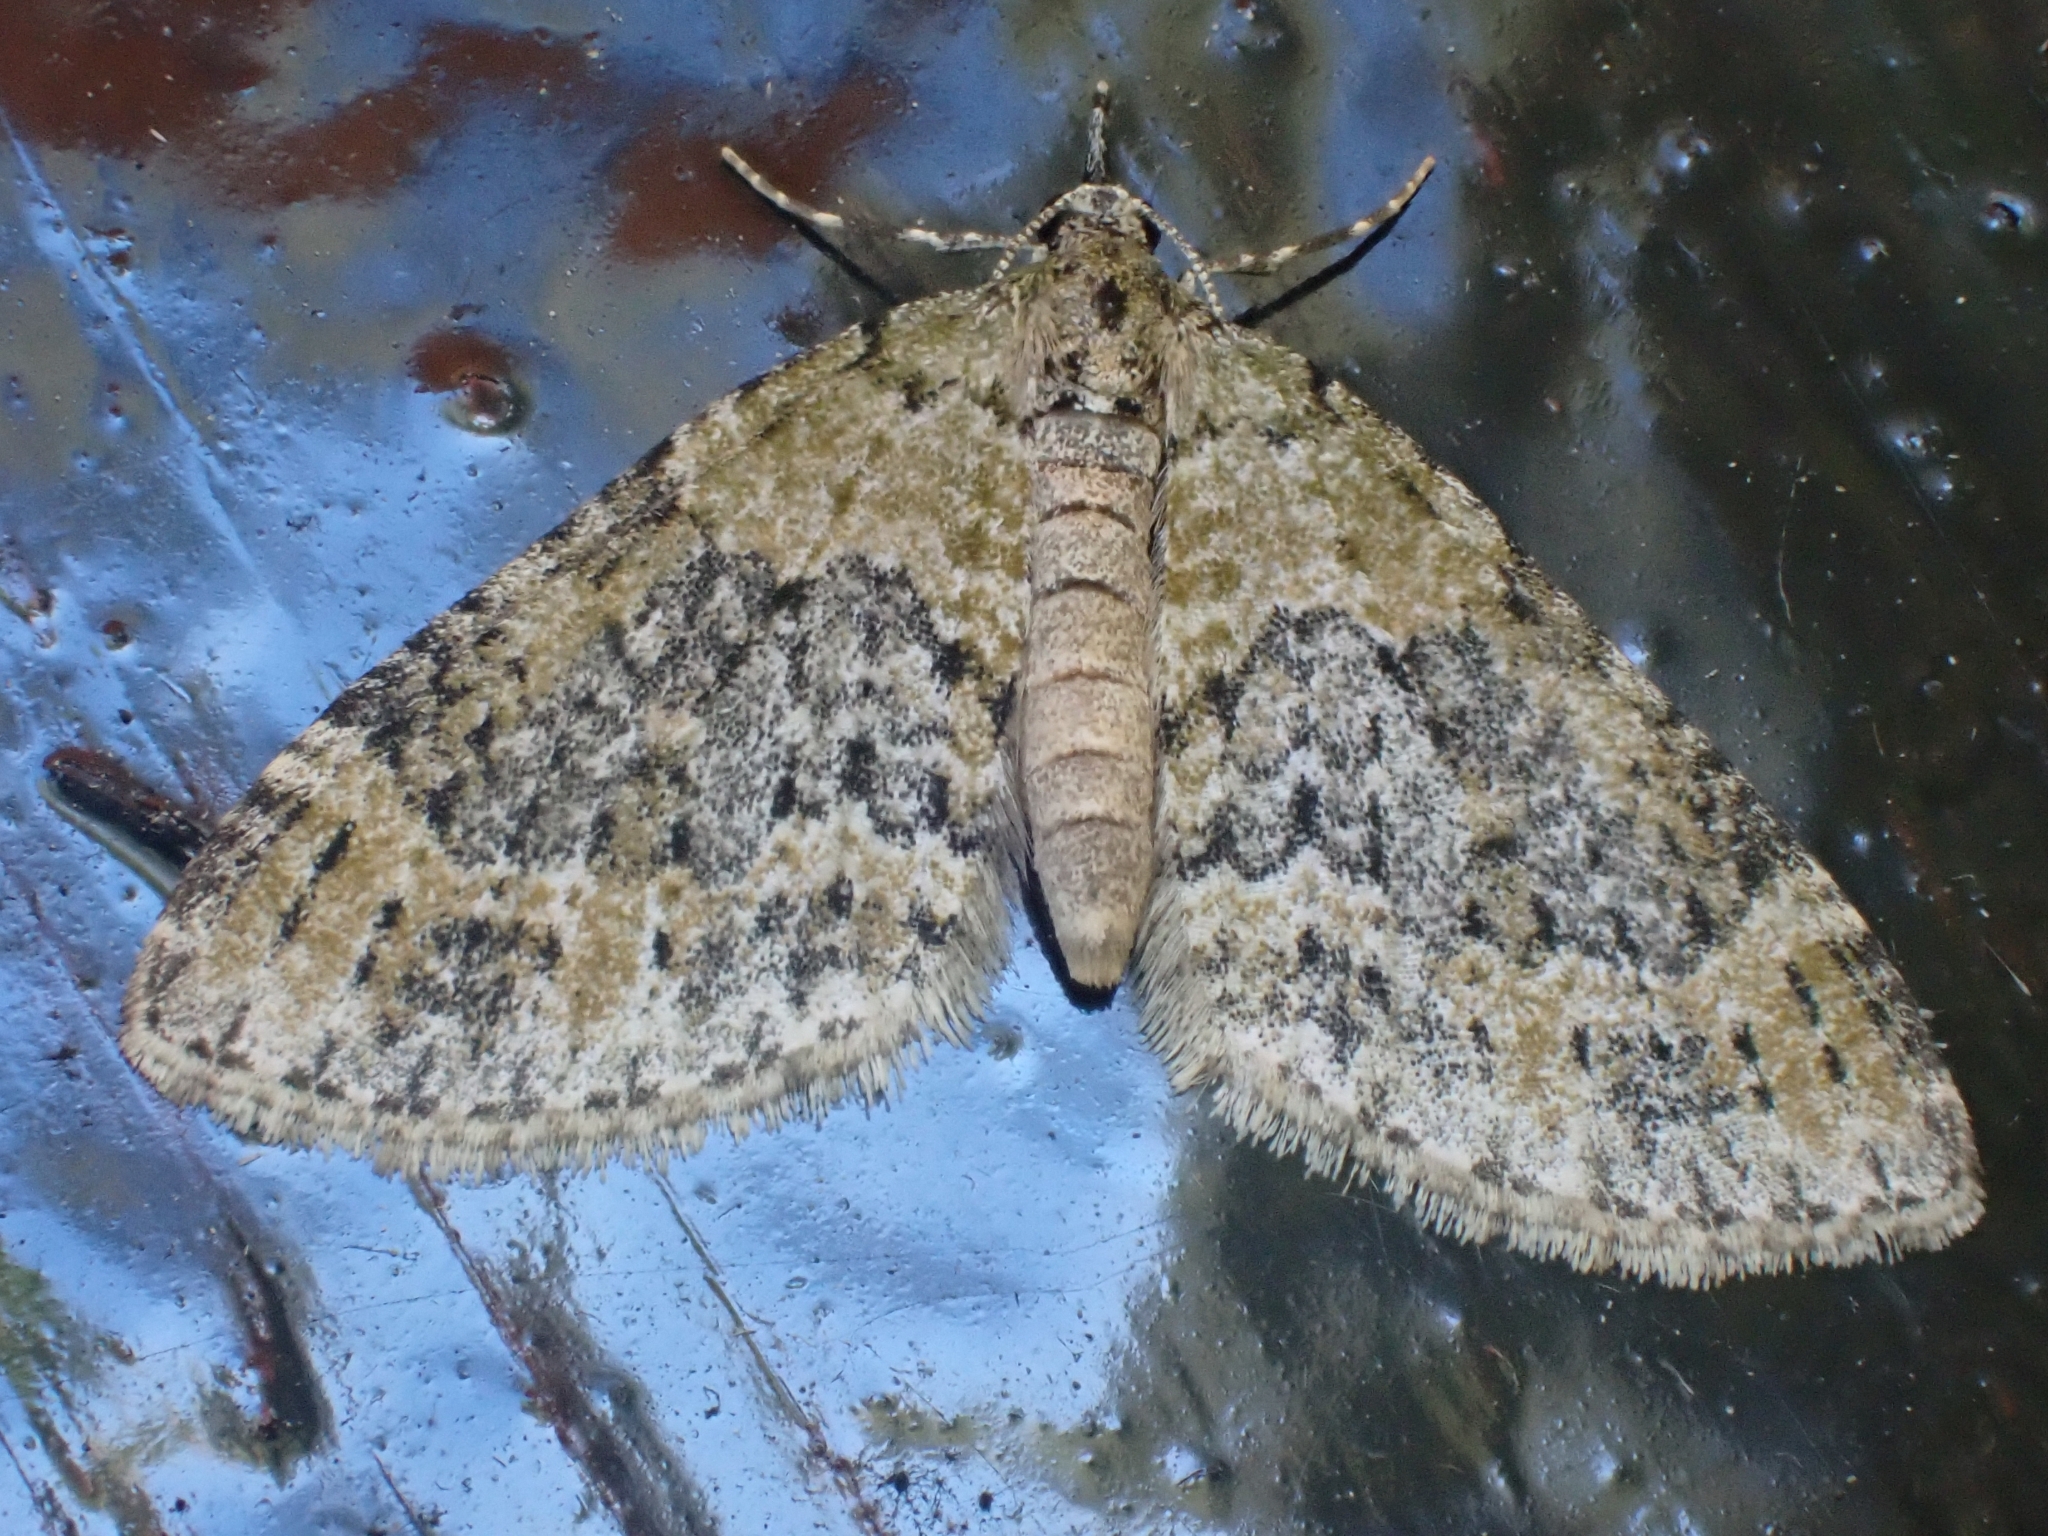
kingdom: Animalia
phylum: Arthropoda
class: Insecta
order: Lepidoptera
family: Geometridae
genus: Acasis
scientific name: Acasis viretata
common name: Yellow-barred brindle
